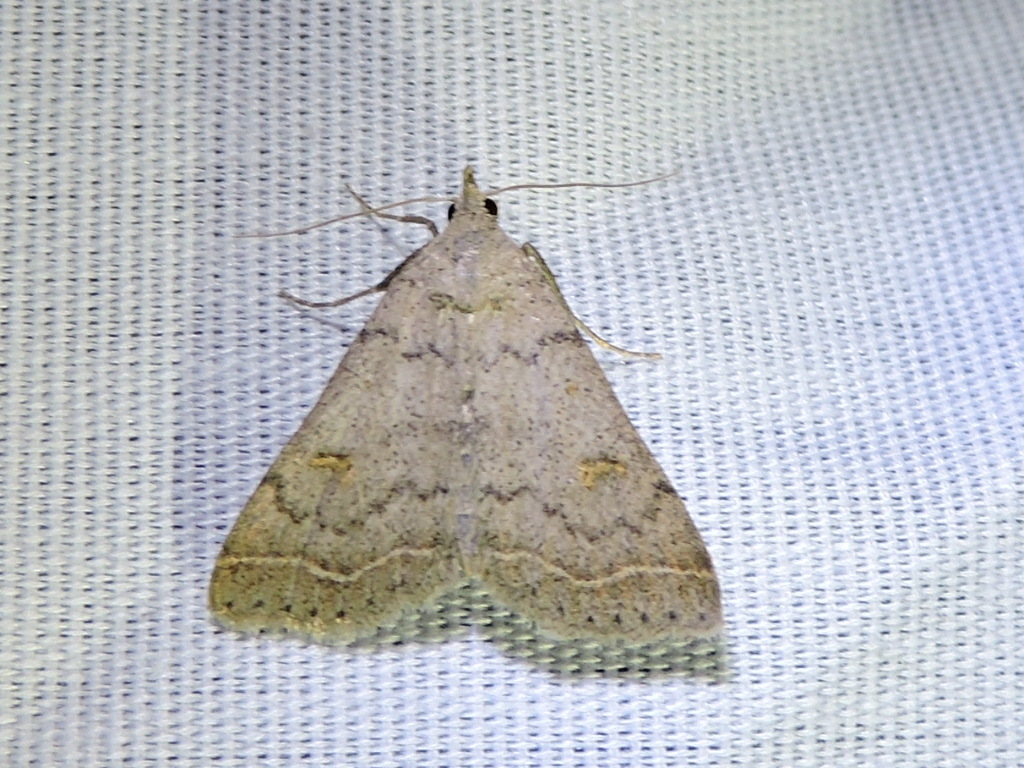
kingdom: Animalia
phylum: Arthropoda
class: Insecta
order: Lepidoptera
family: Erebidae
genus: Bleptina
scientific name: Bleptina caradrinalis
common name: Bent-winged owlet
